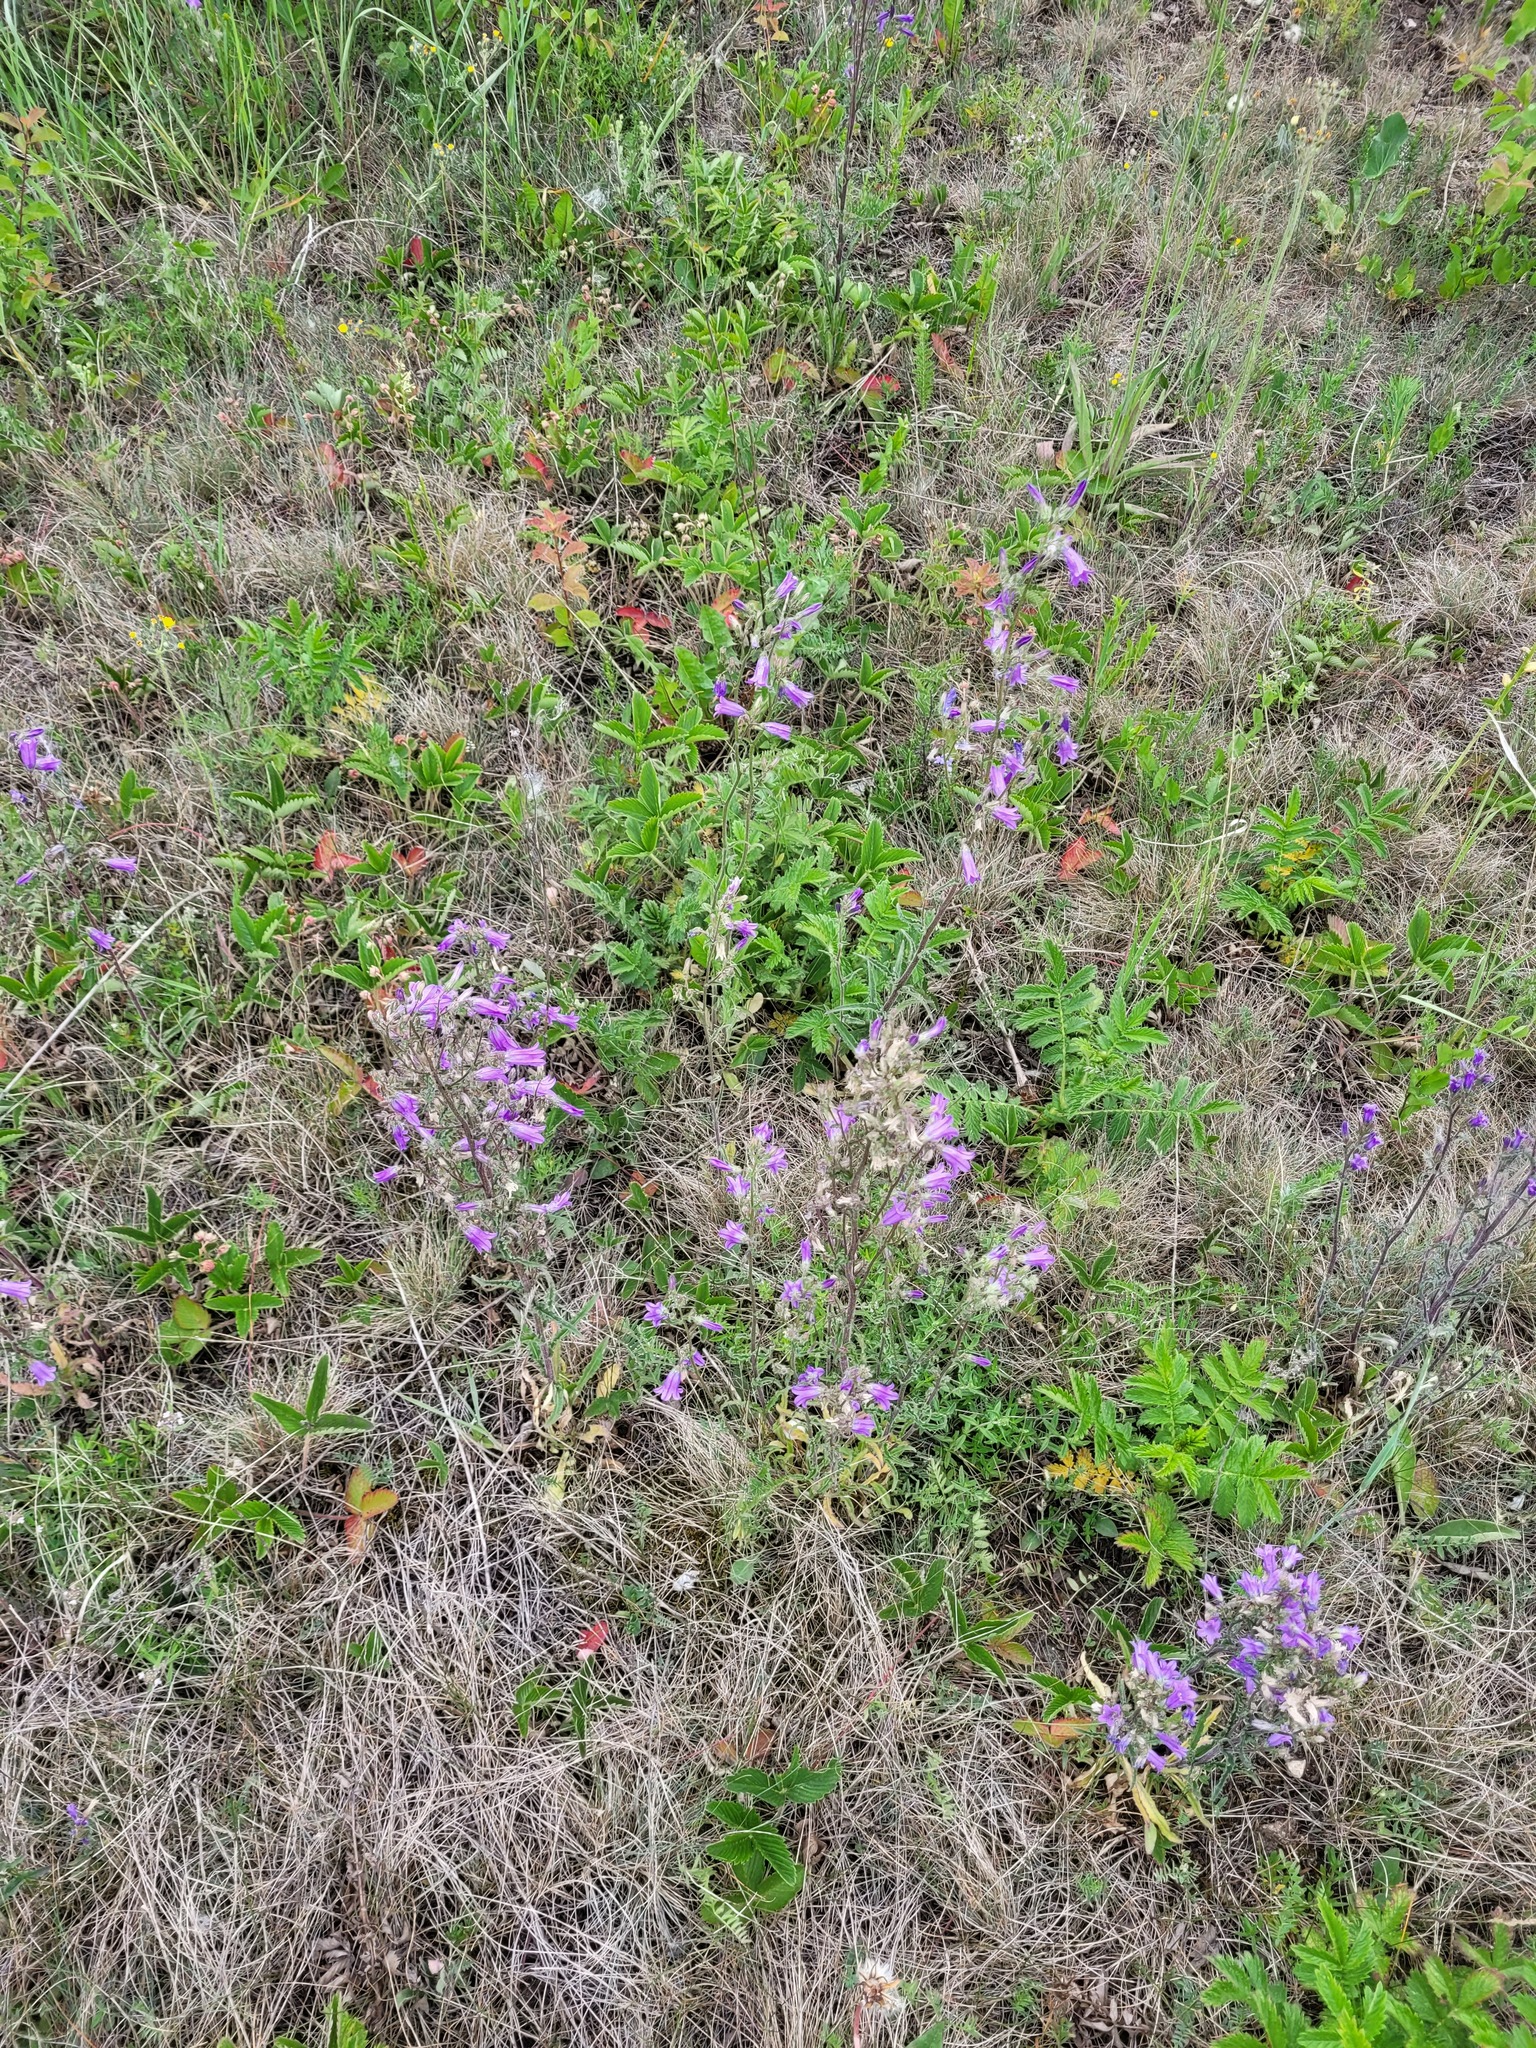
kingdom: Plantae
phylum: Tracheophyta
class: Magnoliopsida
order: Asterales
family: Campanulaceae
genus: Campanula
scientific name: Campanula sibirica
